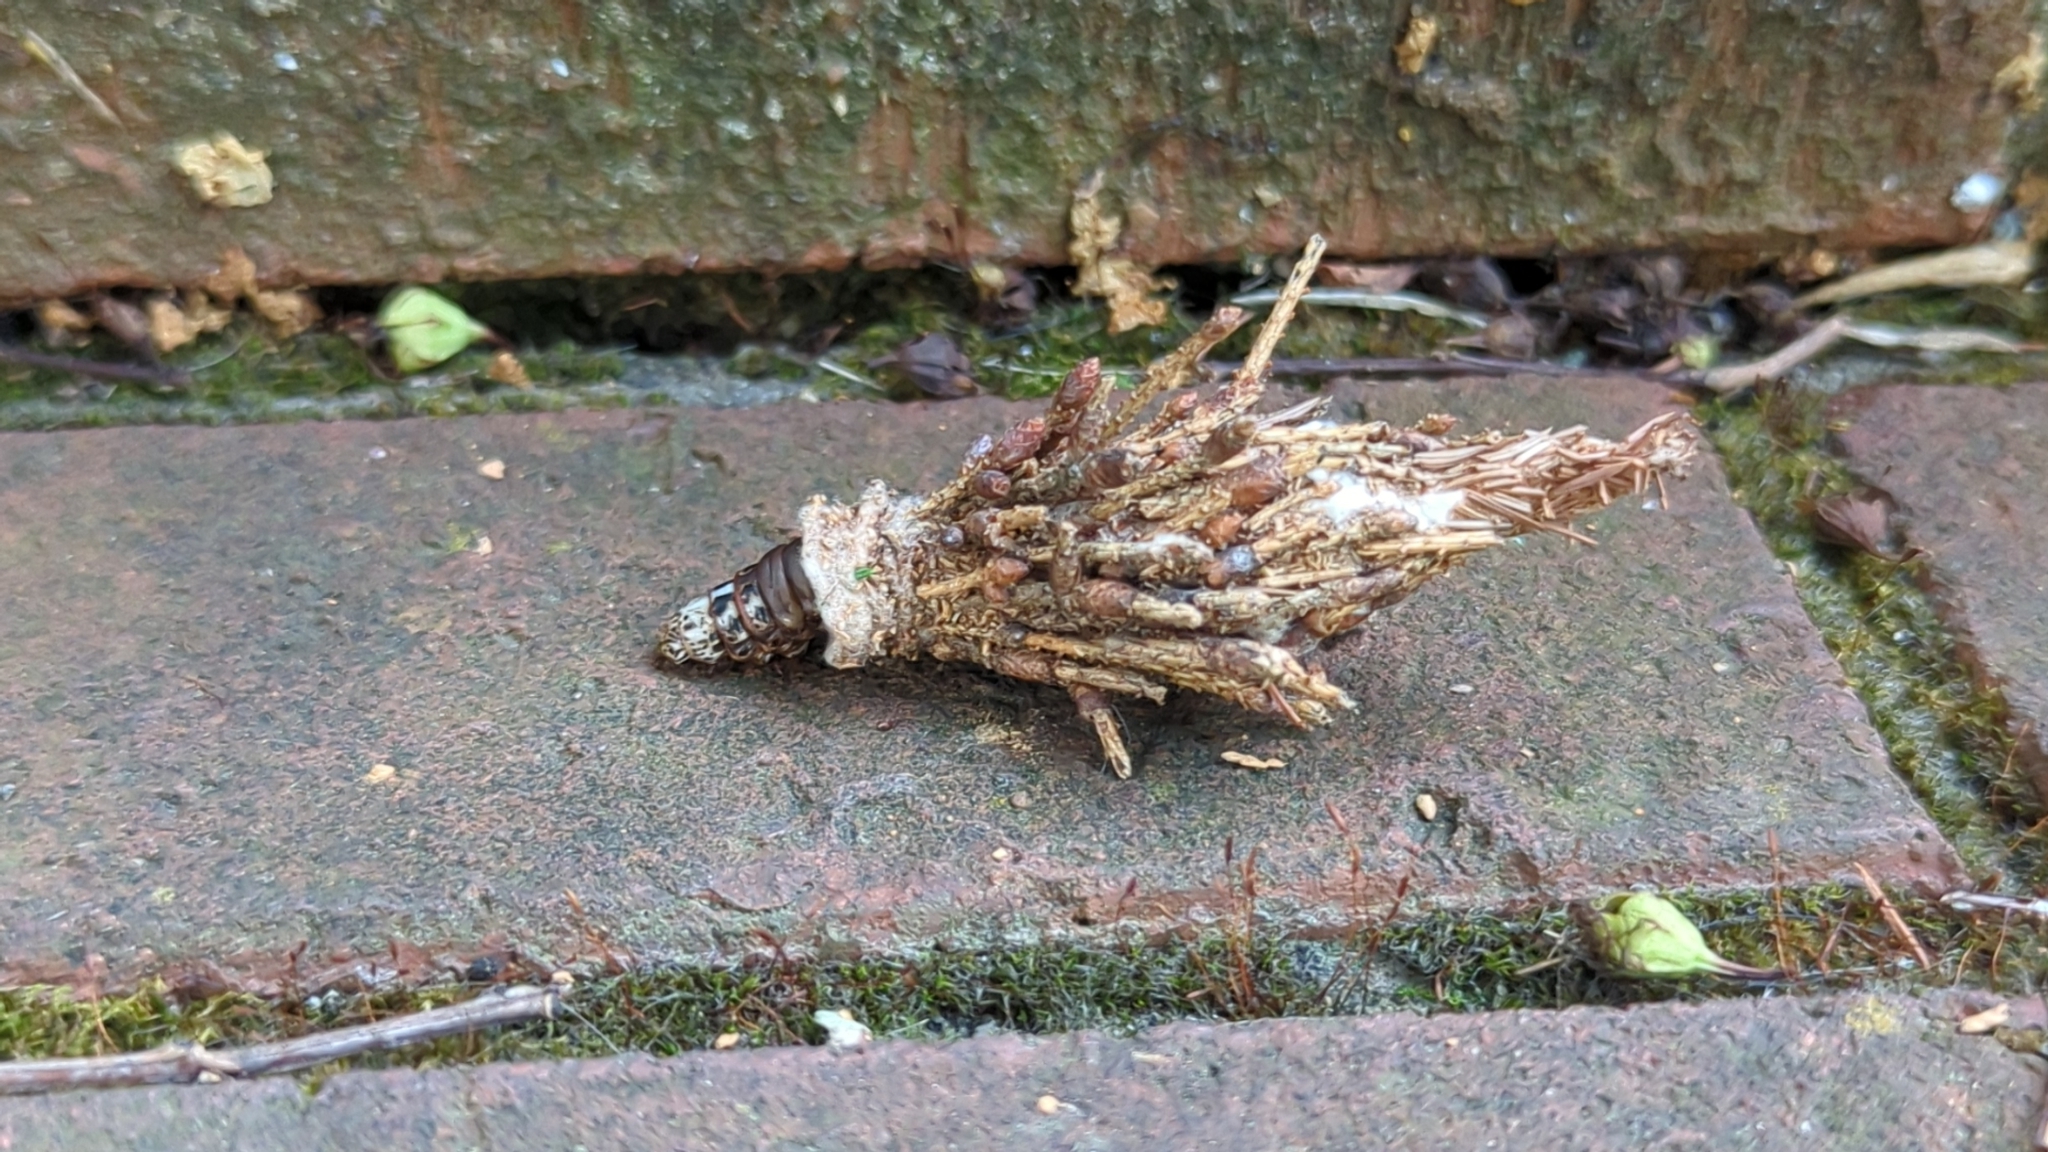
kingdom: Animalia
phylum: Arthropoda
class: Insecta
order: Lepidoptera
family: Psychidae
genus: Thyridopteryx
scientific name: Thyridopteryx ephemeraeformis
